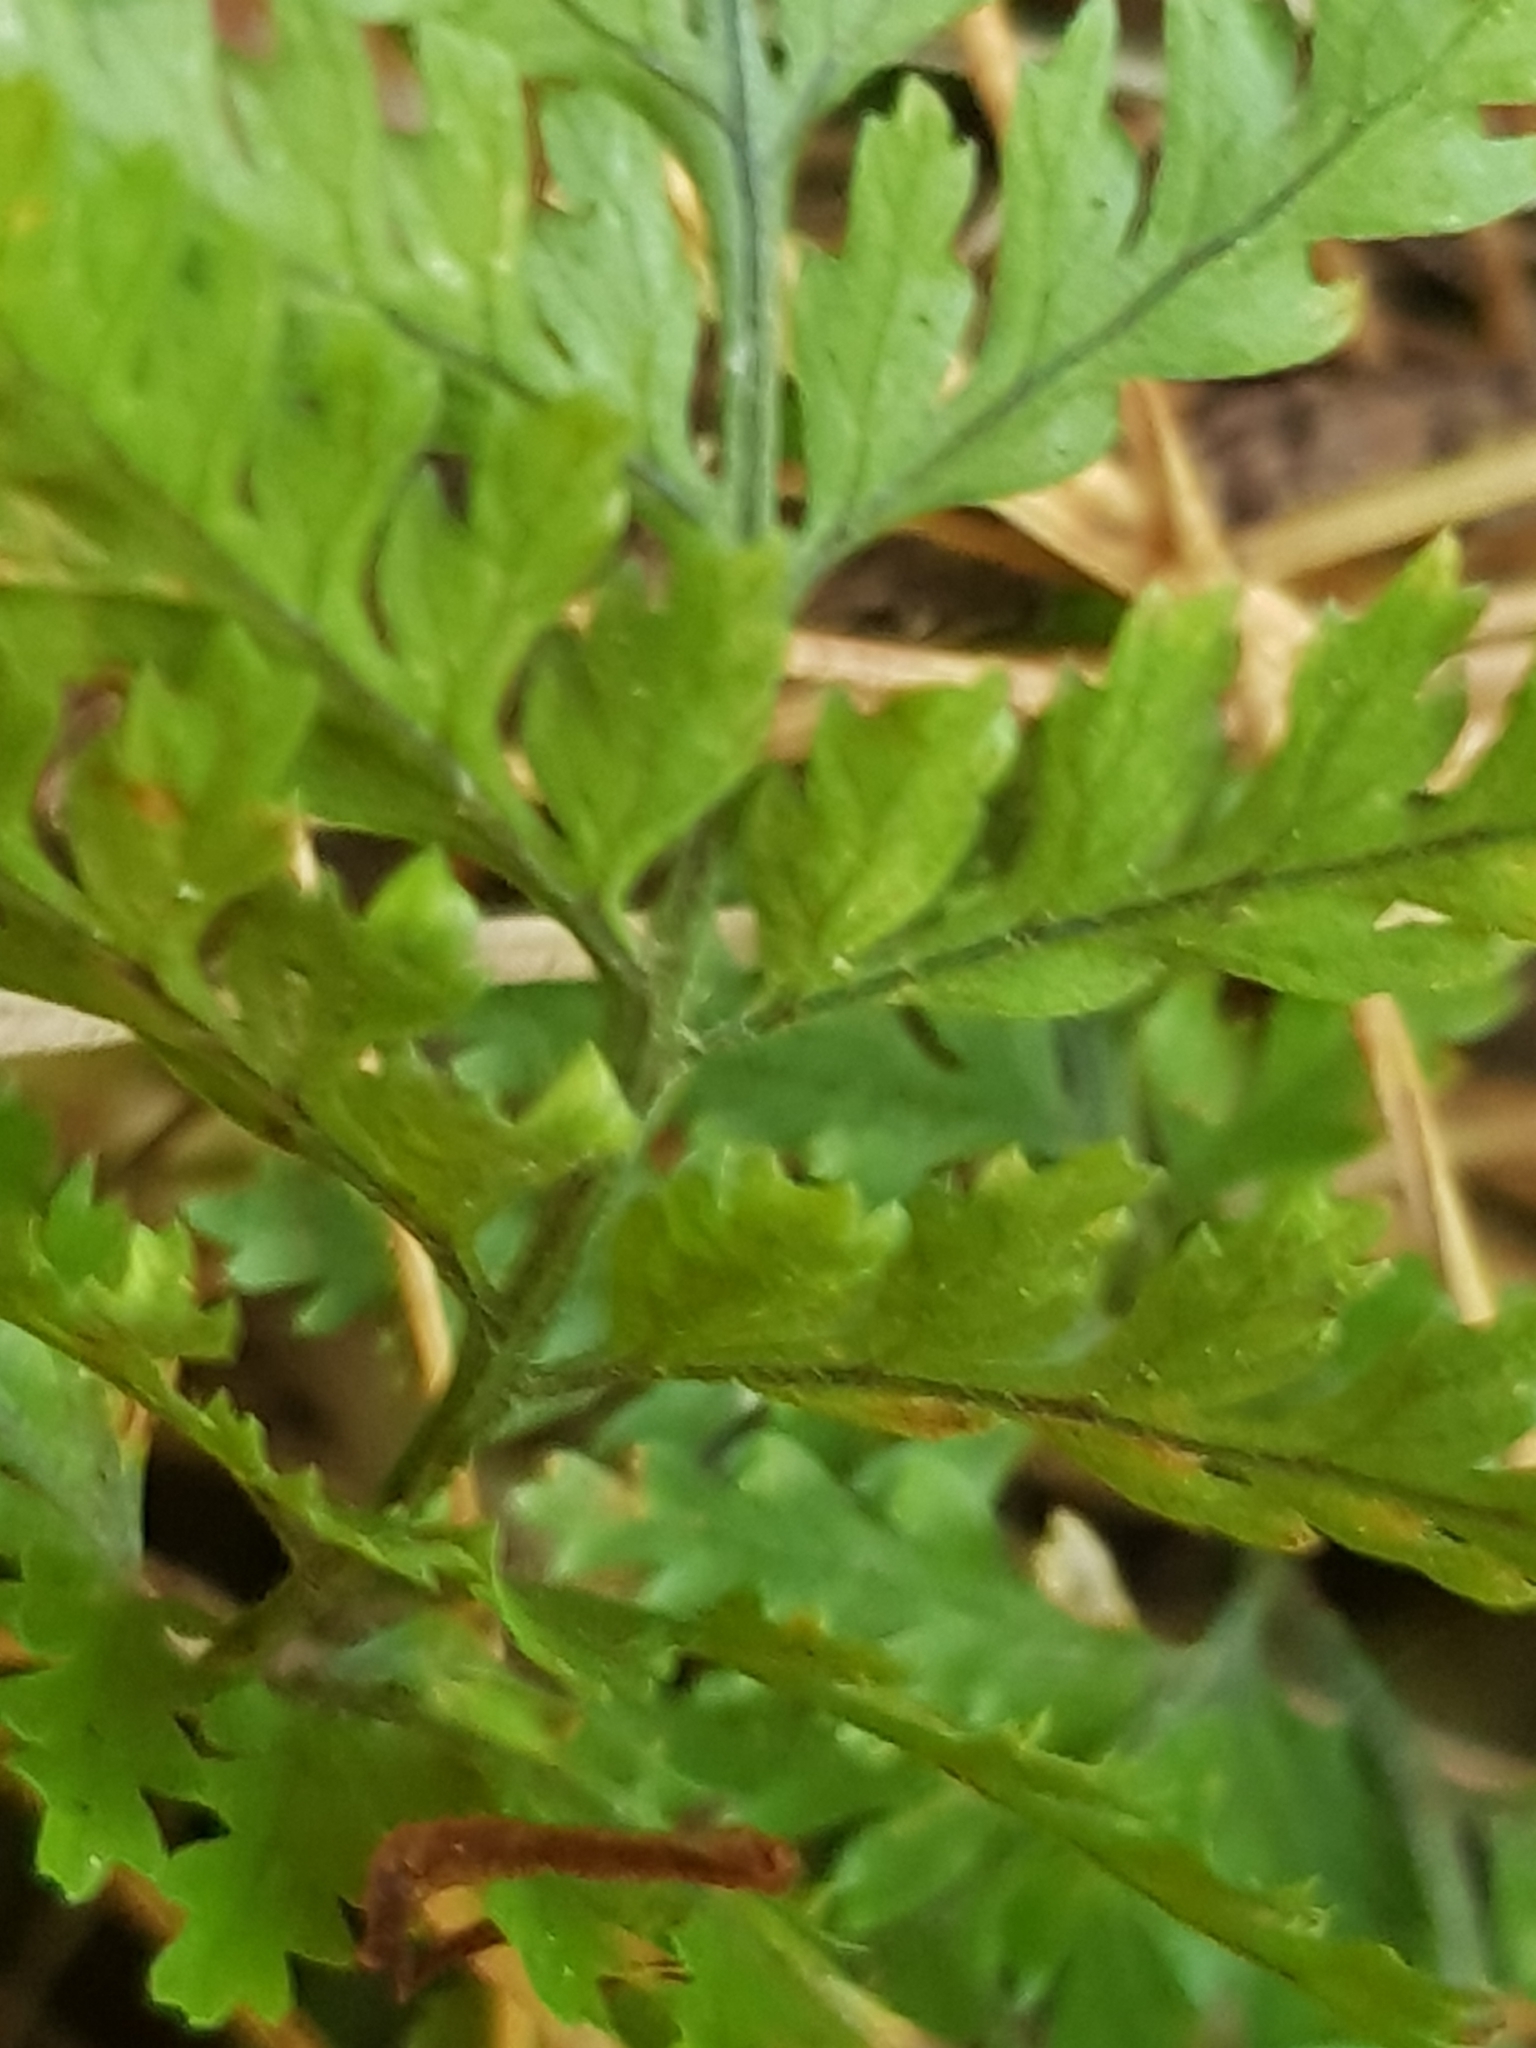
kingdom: Plantae
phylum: Tracheophyta
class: Polypodiopsida
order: Polypodiales
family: Dryopteridaceae
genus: Parapolystichum
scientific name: Parapolystichum glabellum
